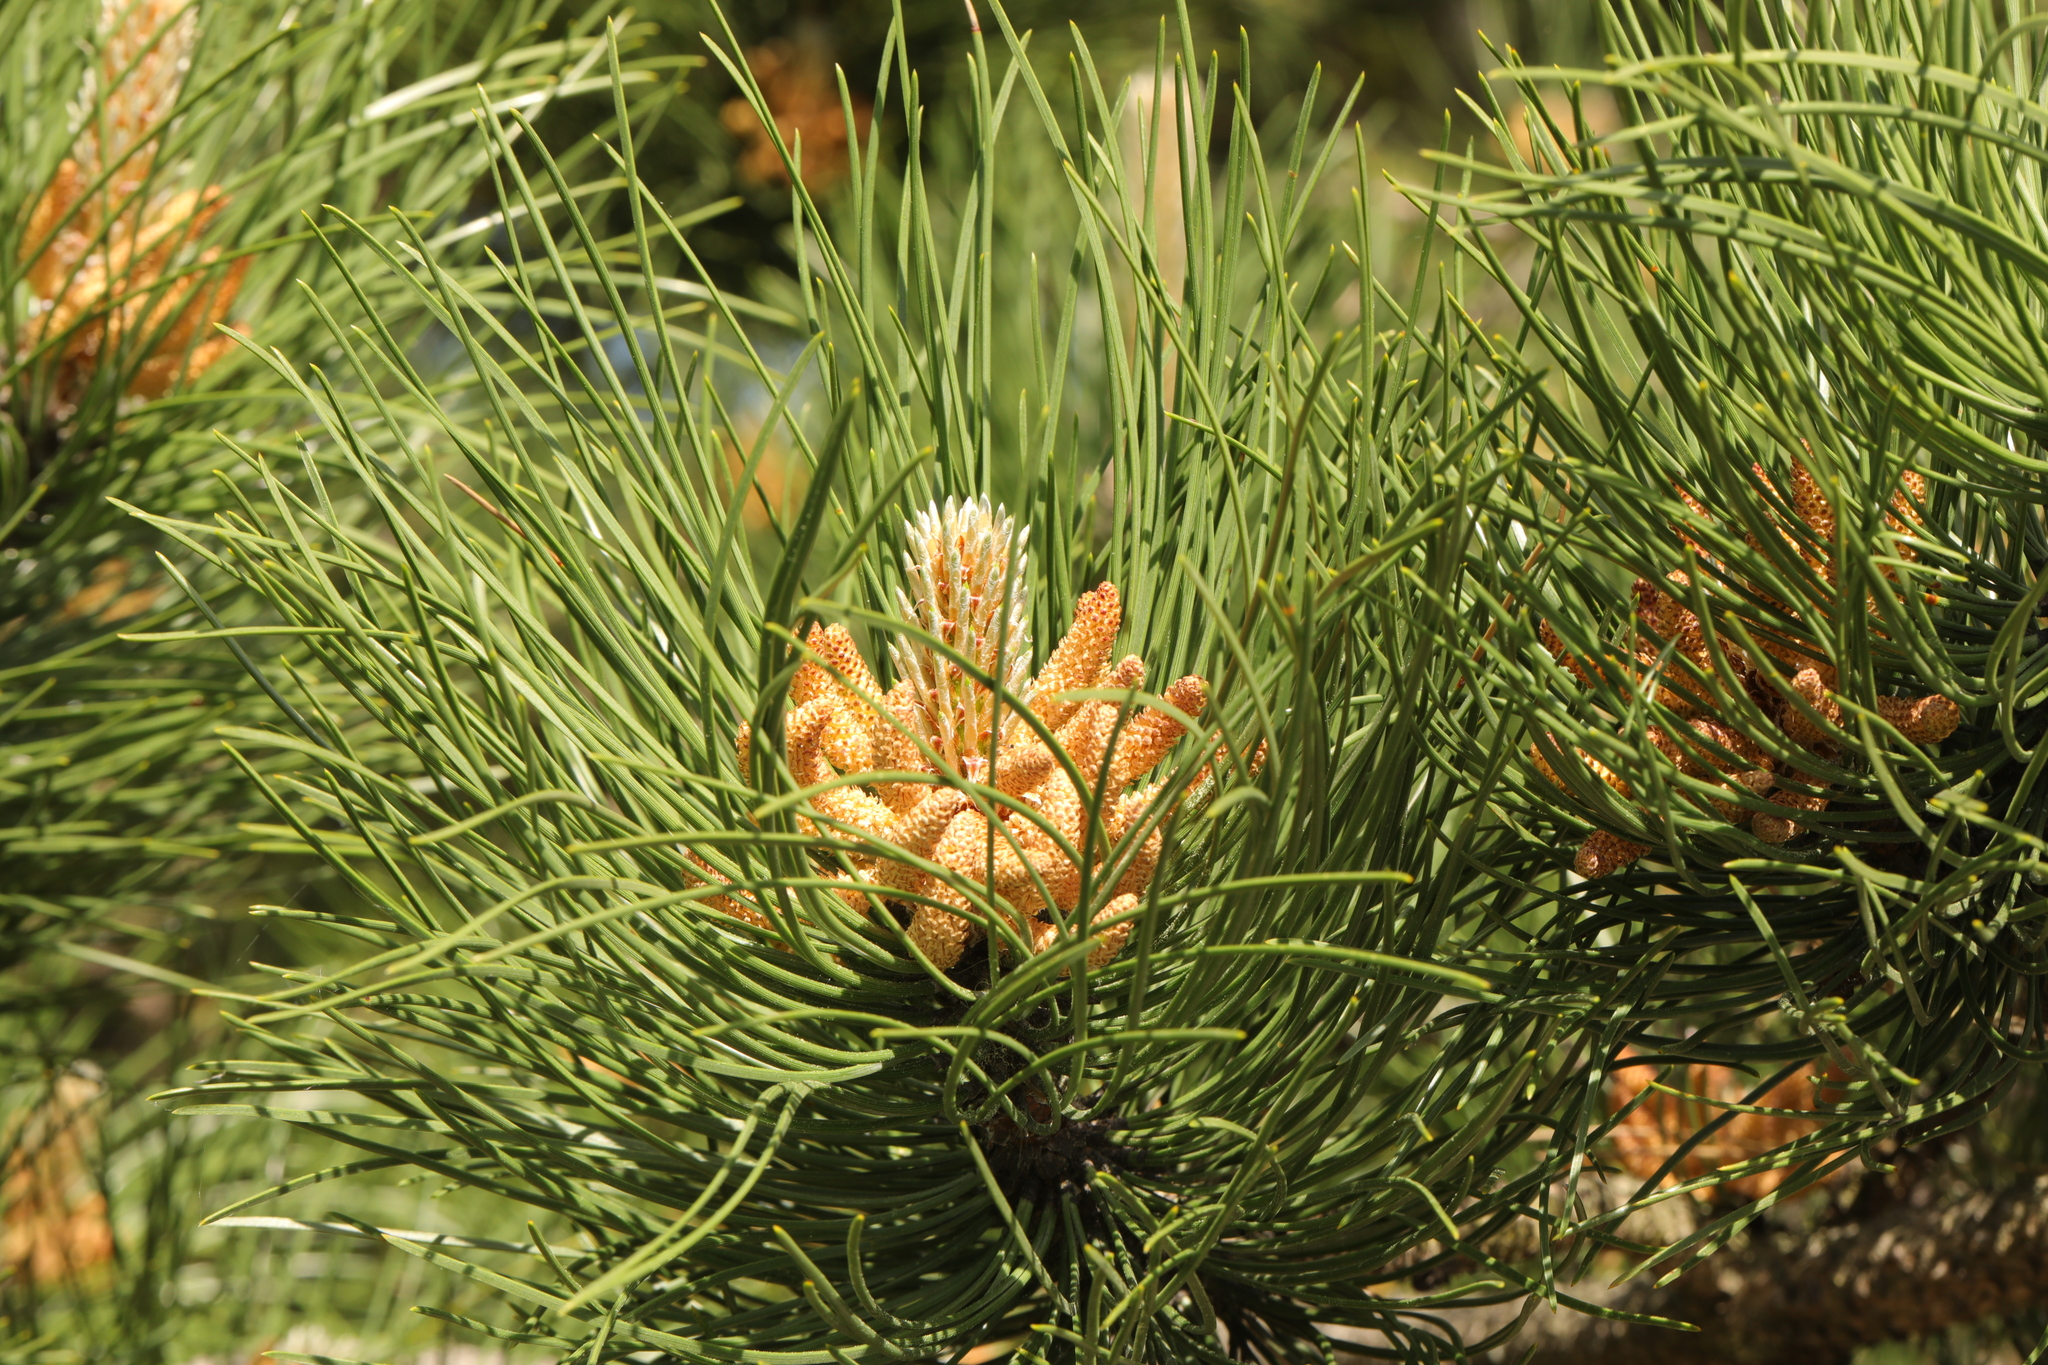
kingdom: Plantae
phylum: Tracheophyta
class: Pinopsida
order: Pinales
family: Pinaceae
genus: Pinus
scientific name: Pinus sylvestris
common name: Scots pine
